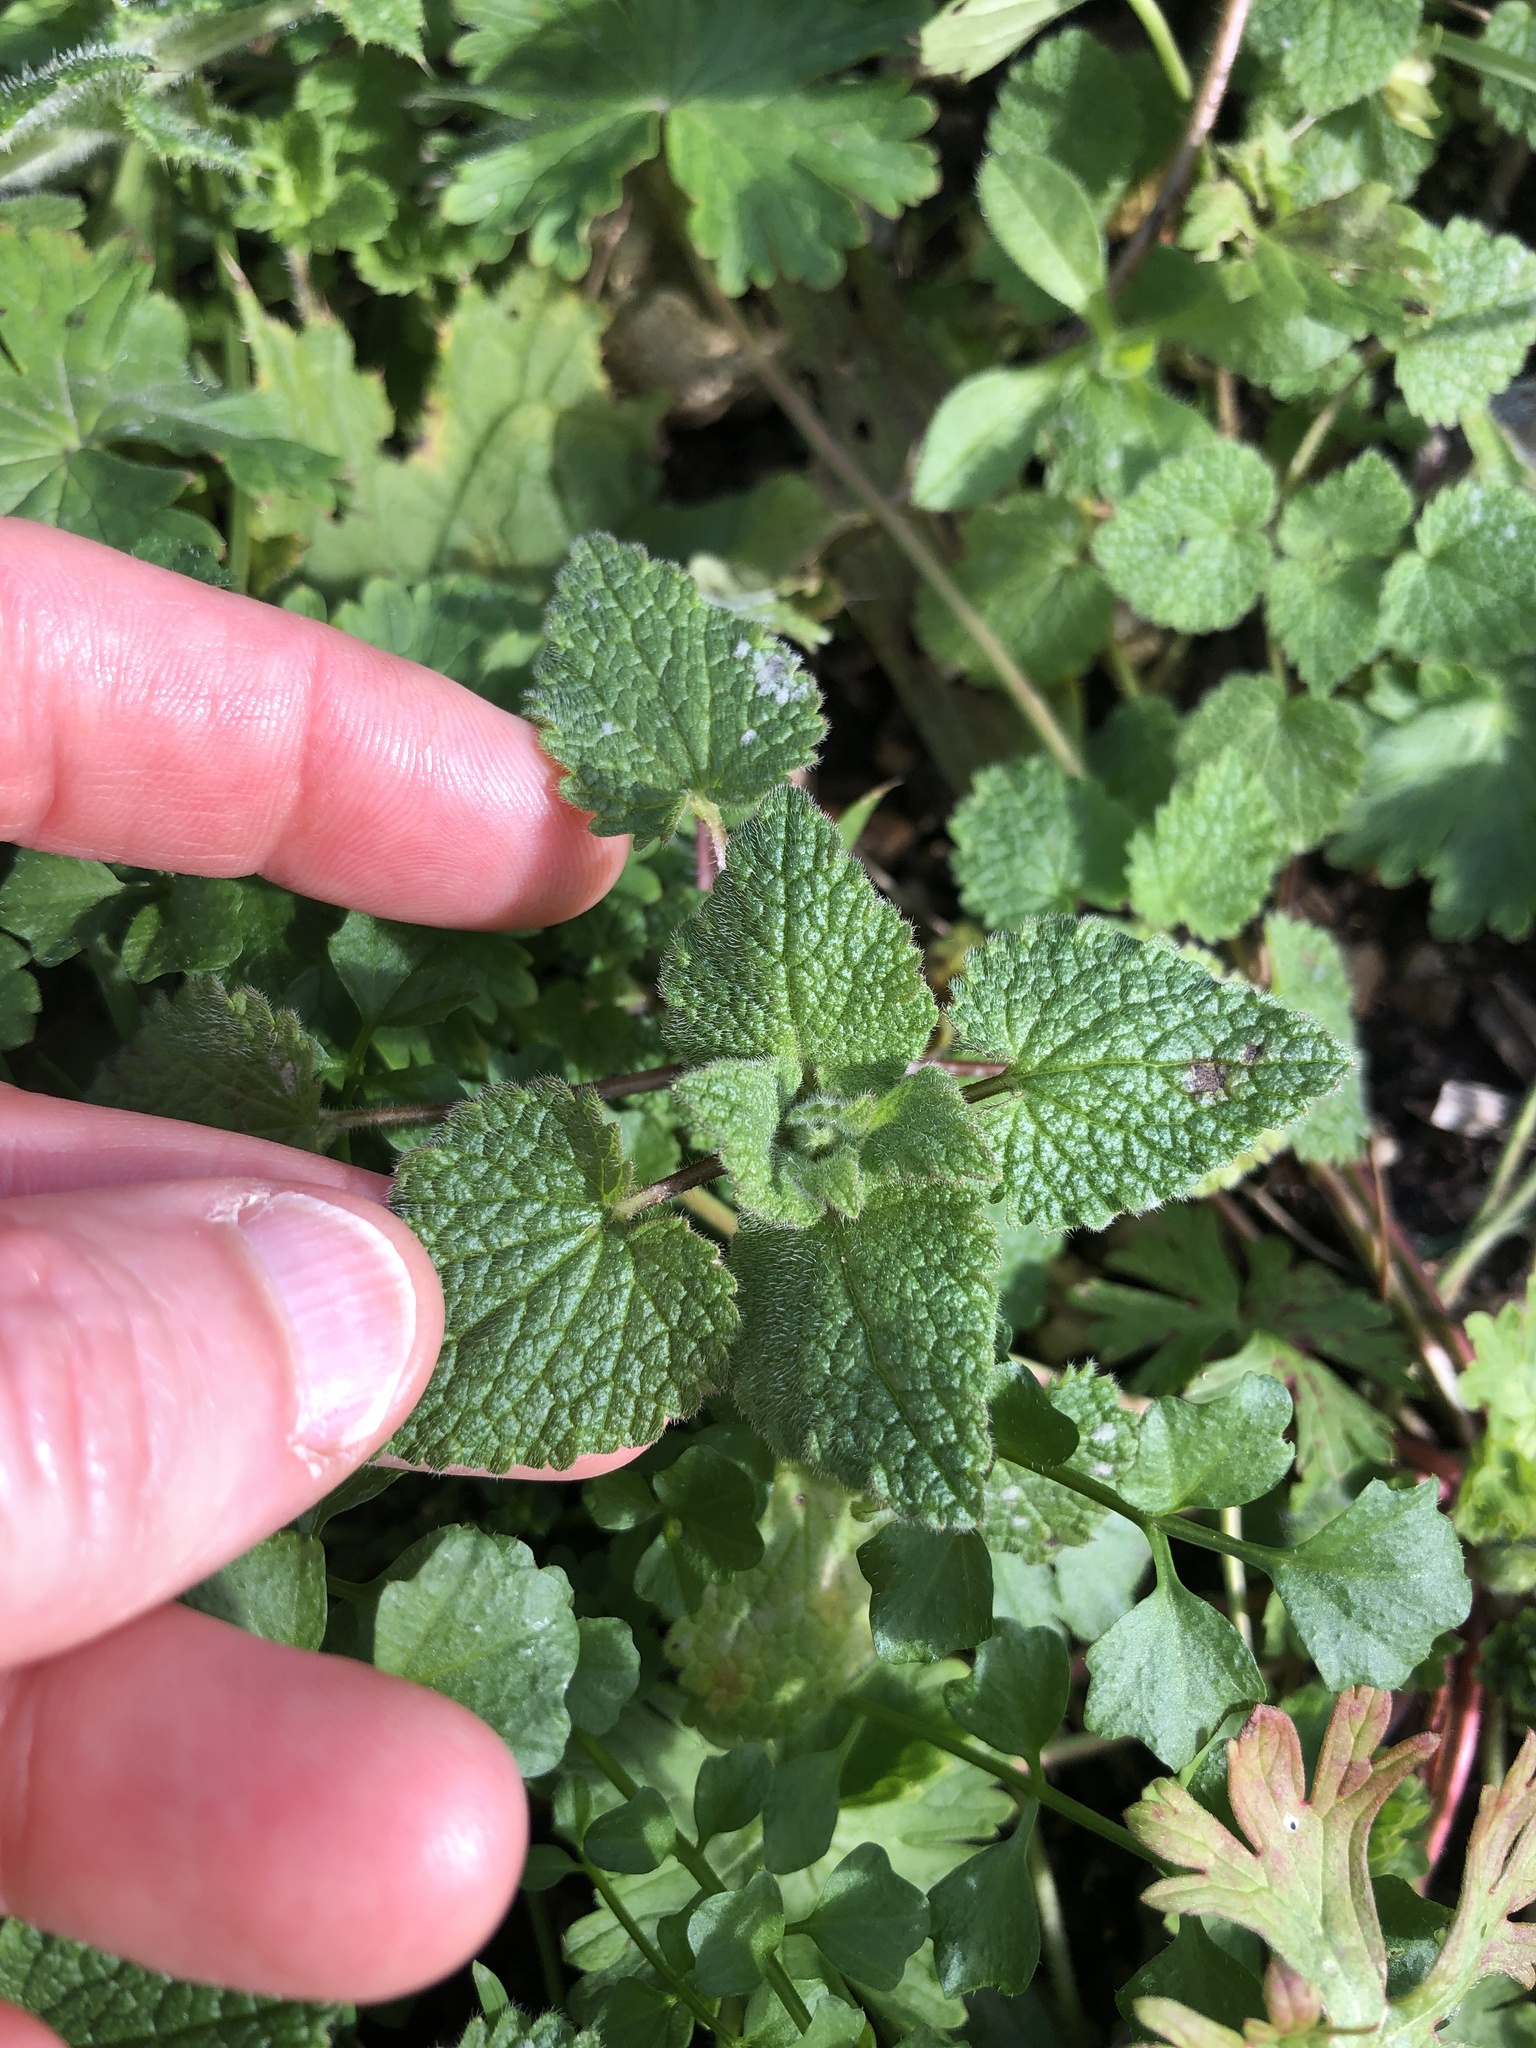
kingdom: Plantae
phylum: Tracheophyta
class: Magnoliopsida
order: Lamiales
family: Lamiaceae
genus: Teucrium
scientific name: Teucrium scorodonia
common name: Woodland germander
